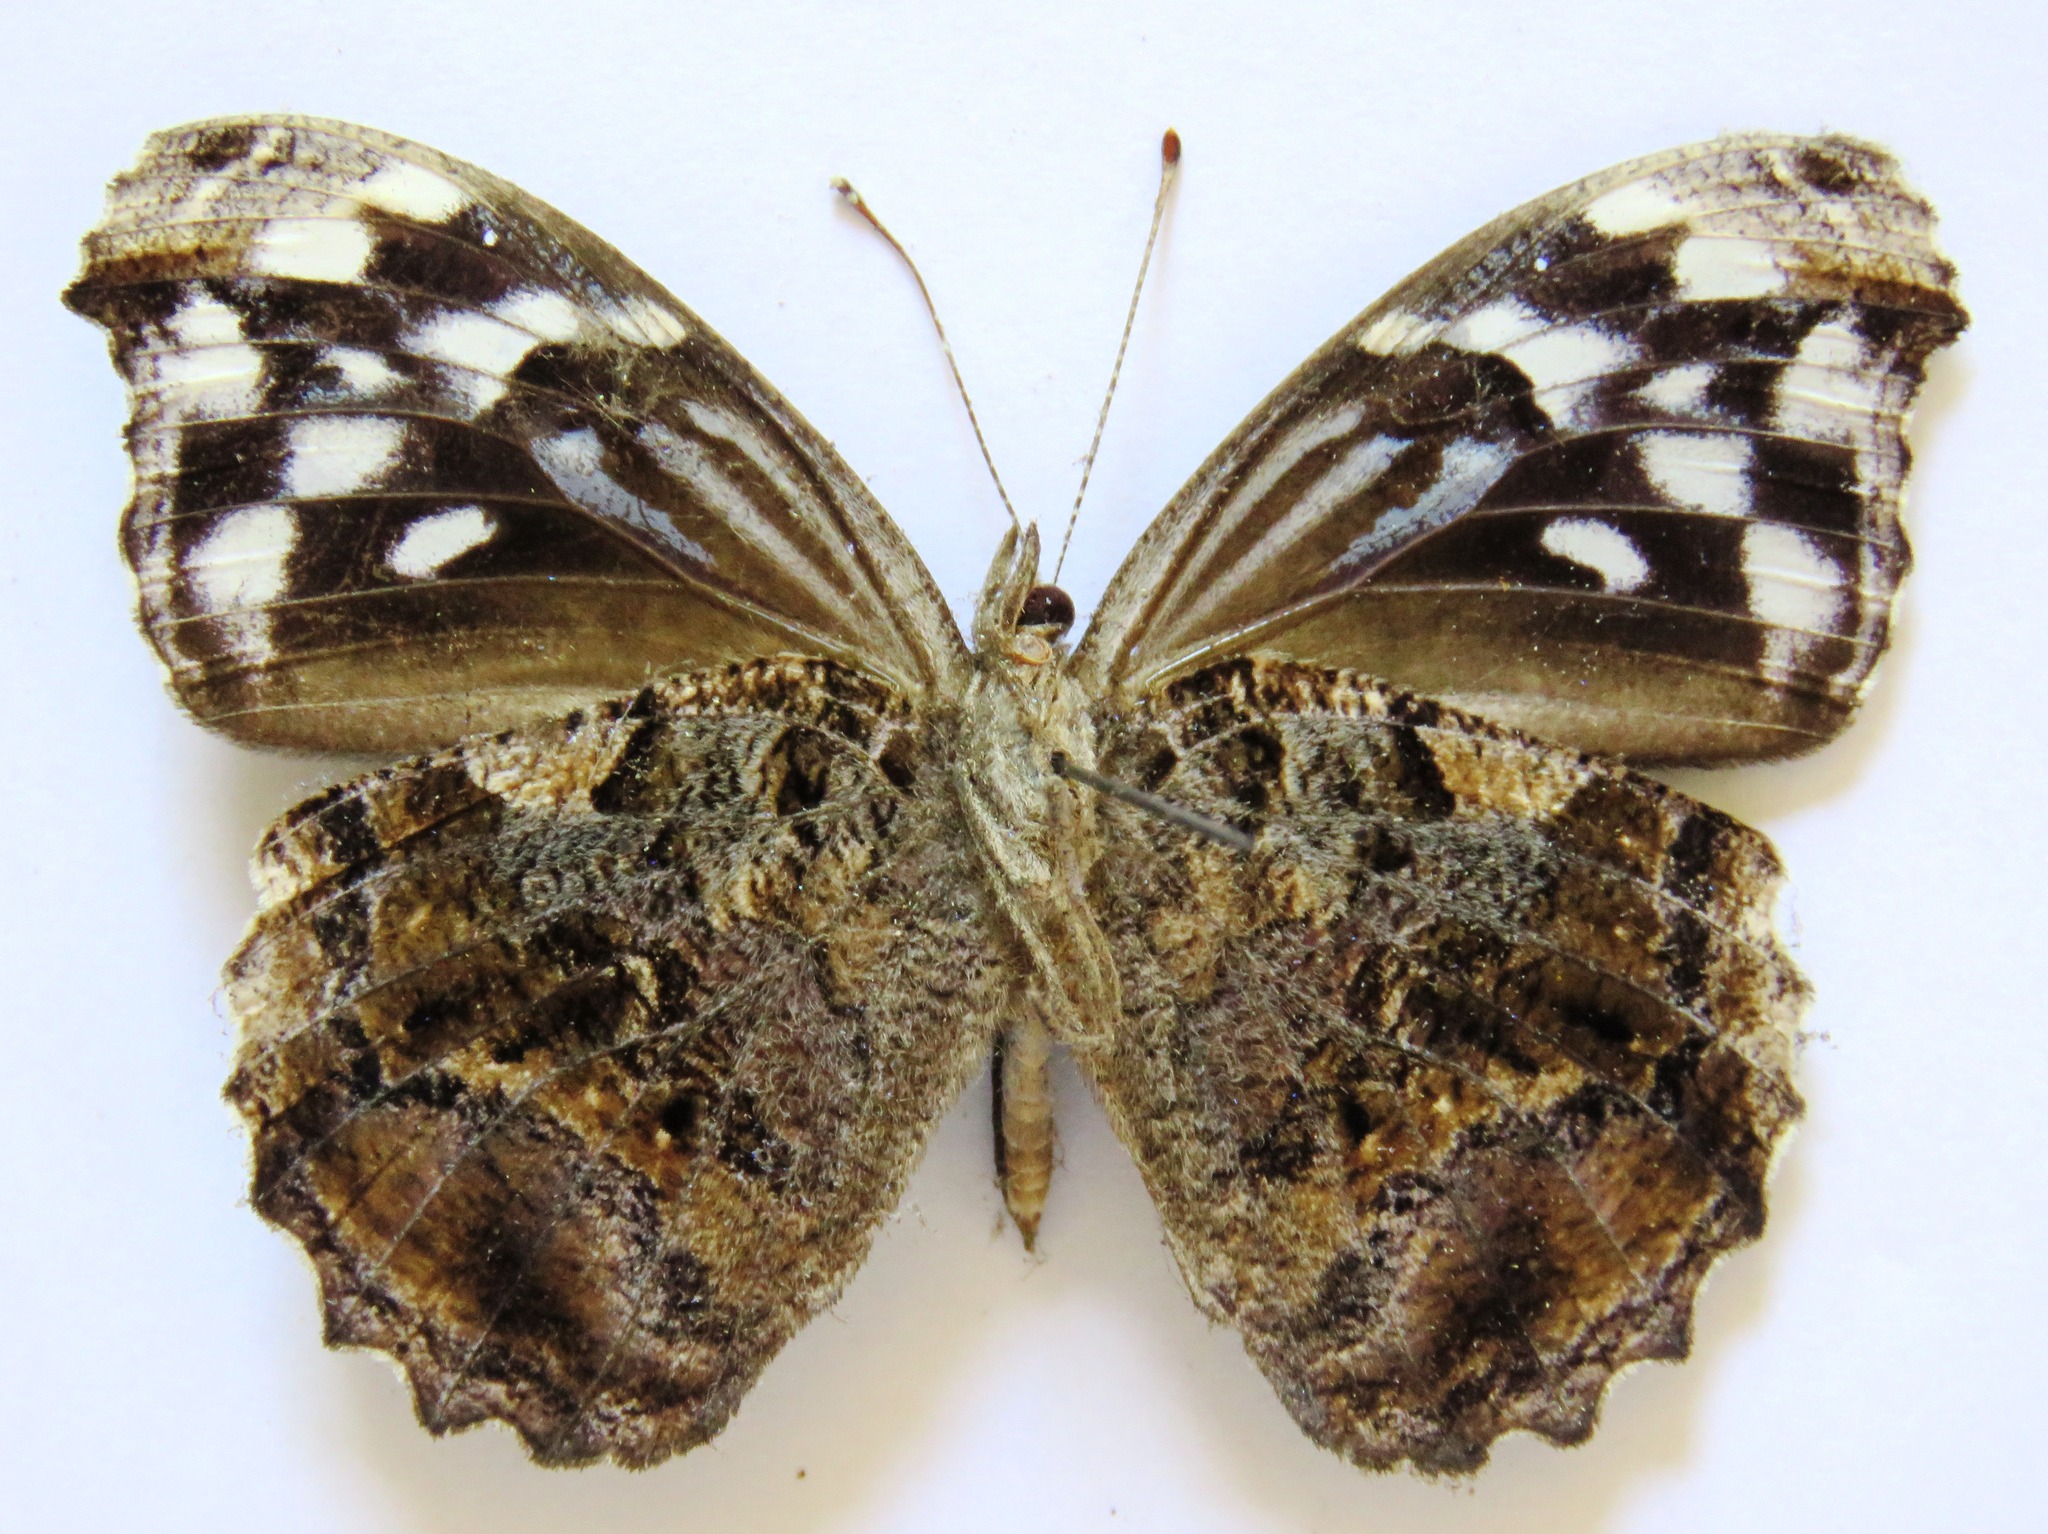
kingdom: Animalia
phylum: Arthropoda
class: Insecta
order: Lepidoptera
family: Nymphalidae
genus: Myscelia
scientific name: Myscelia ethusa
